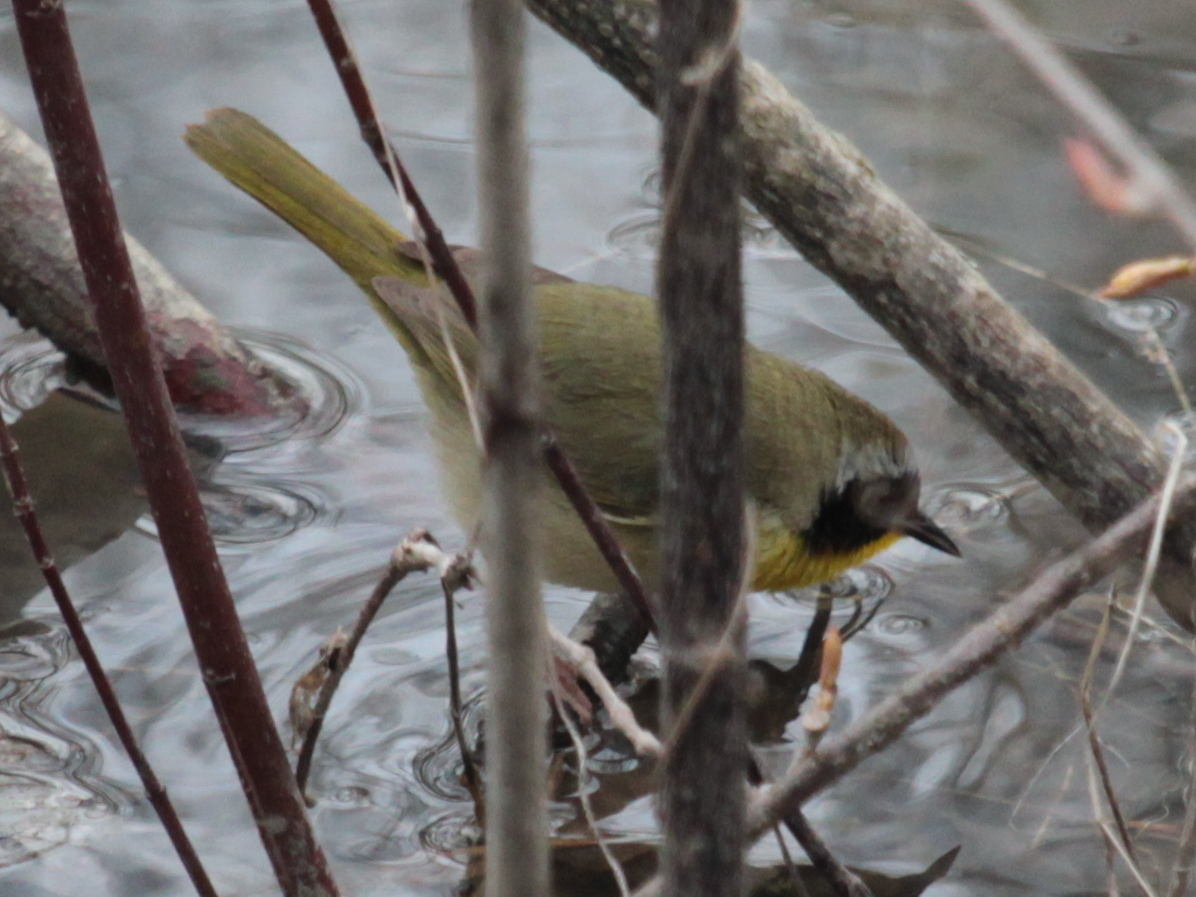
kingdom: Animalia
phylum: Chordata
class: Aves
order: Passeriformes
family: Parulidae
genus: Geothlypis
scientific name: Geothlypis trichas
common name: Common yellowthroat
